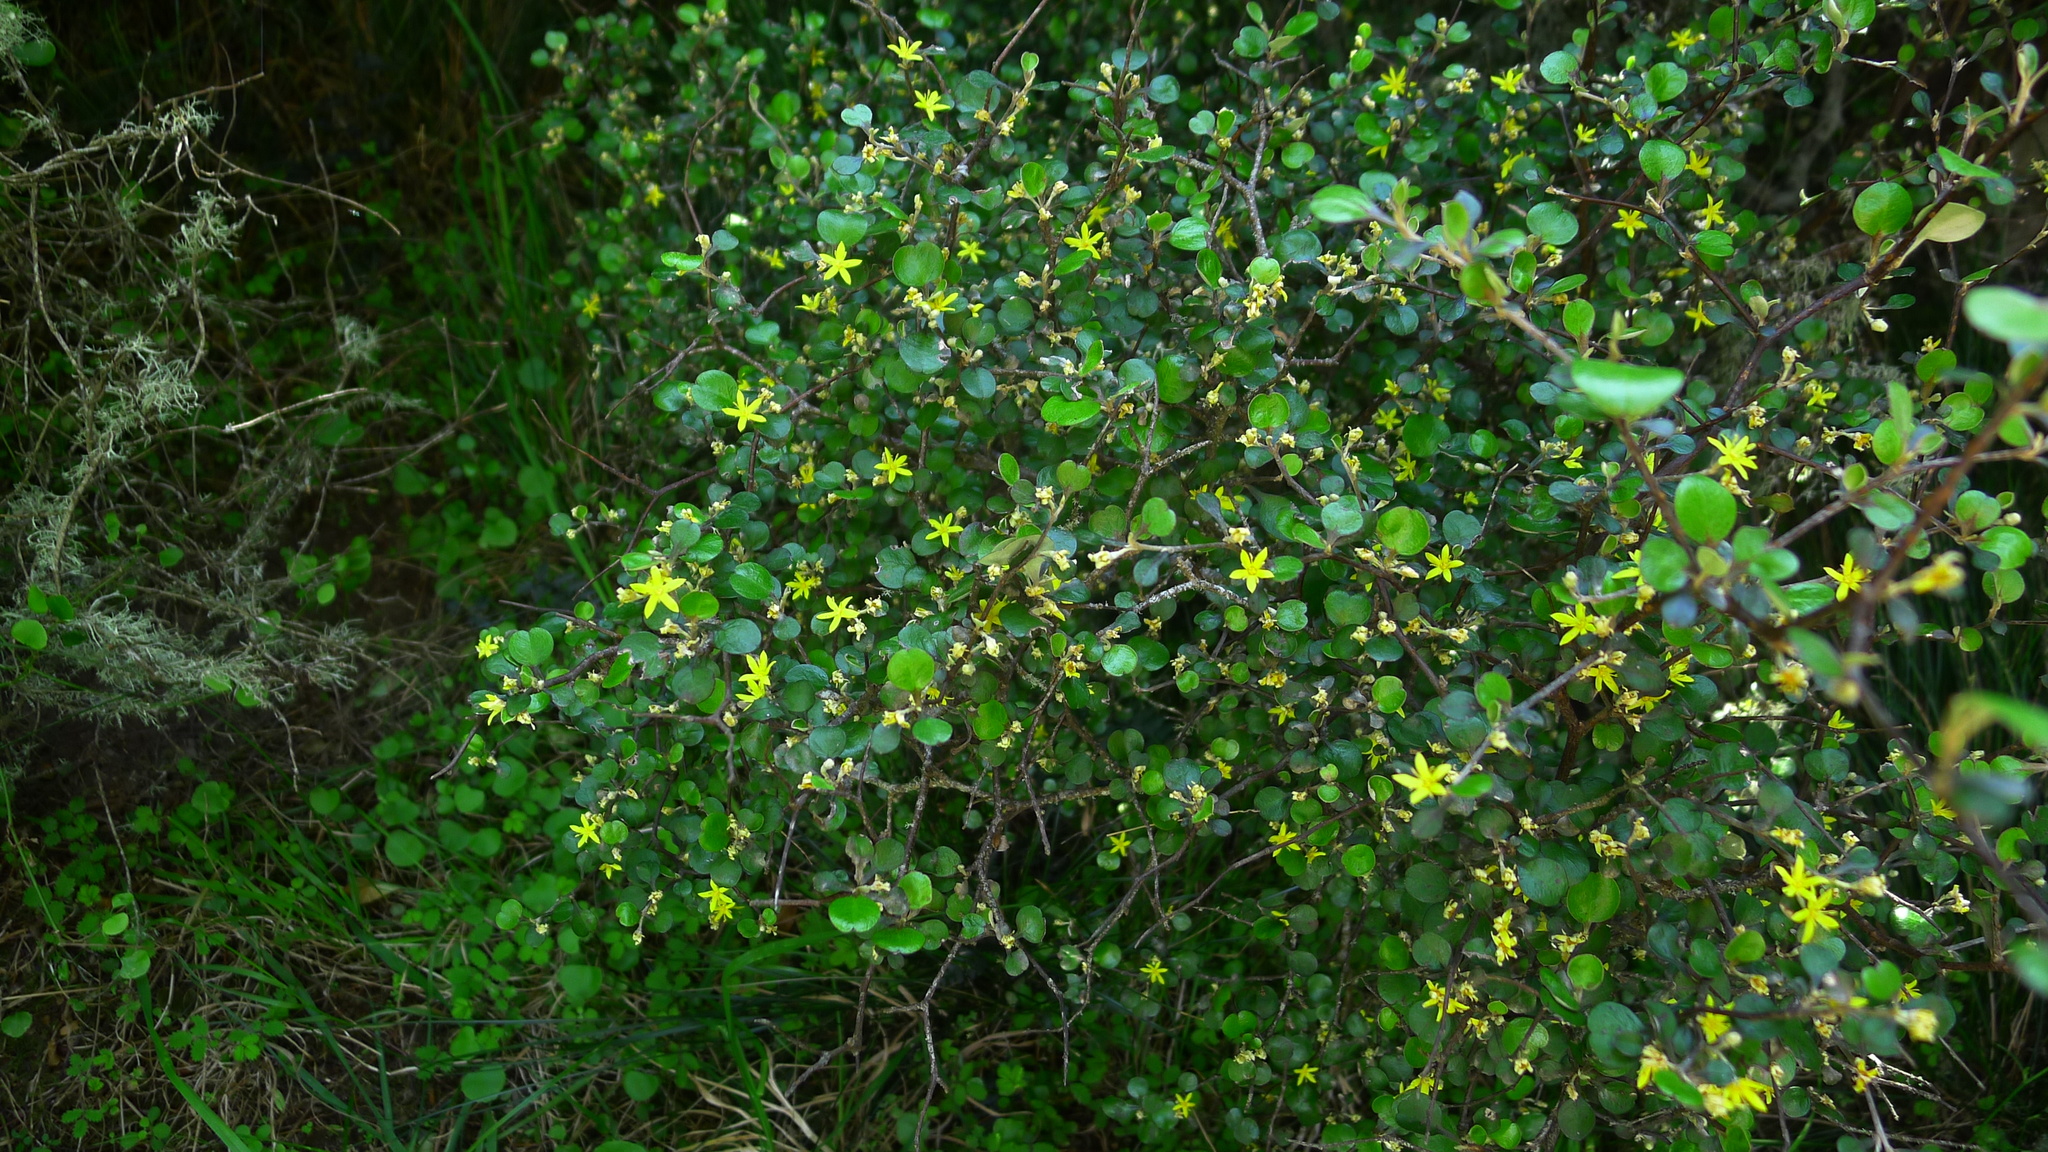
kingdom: Plantae
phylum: Tracheophyta
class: Magnoliopsida
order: Asterales
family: Argophyllaceae
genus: Corokia
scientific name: Corokia cotoneaster
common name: Wire nettingbush
